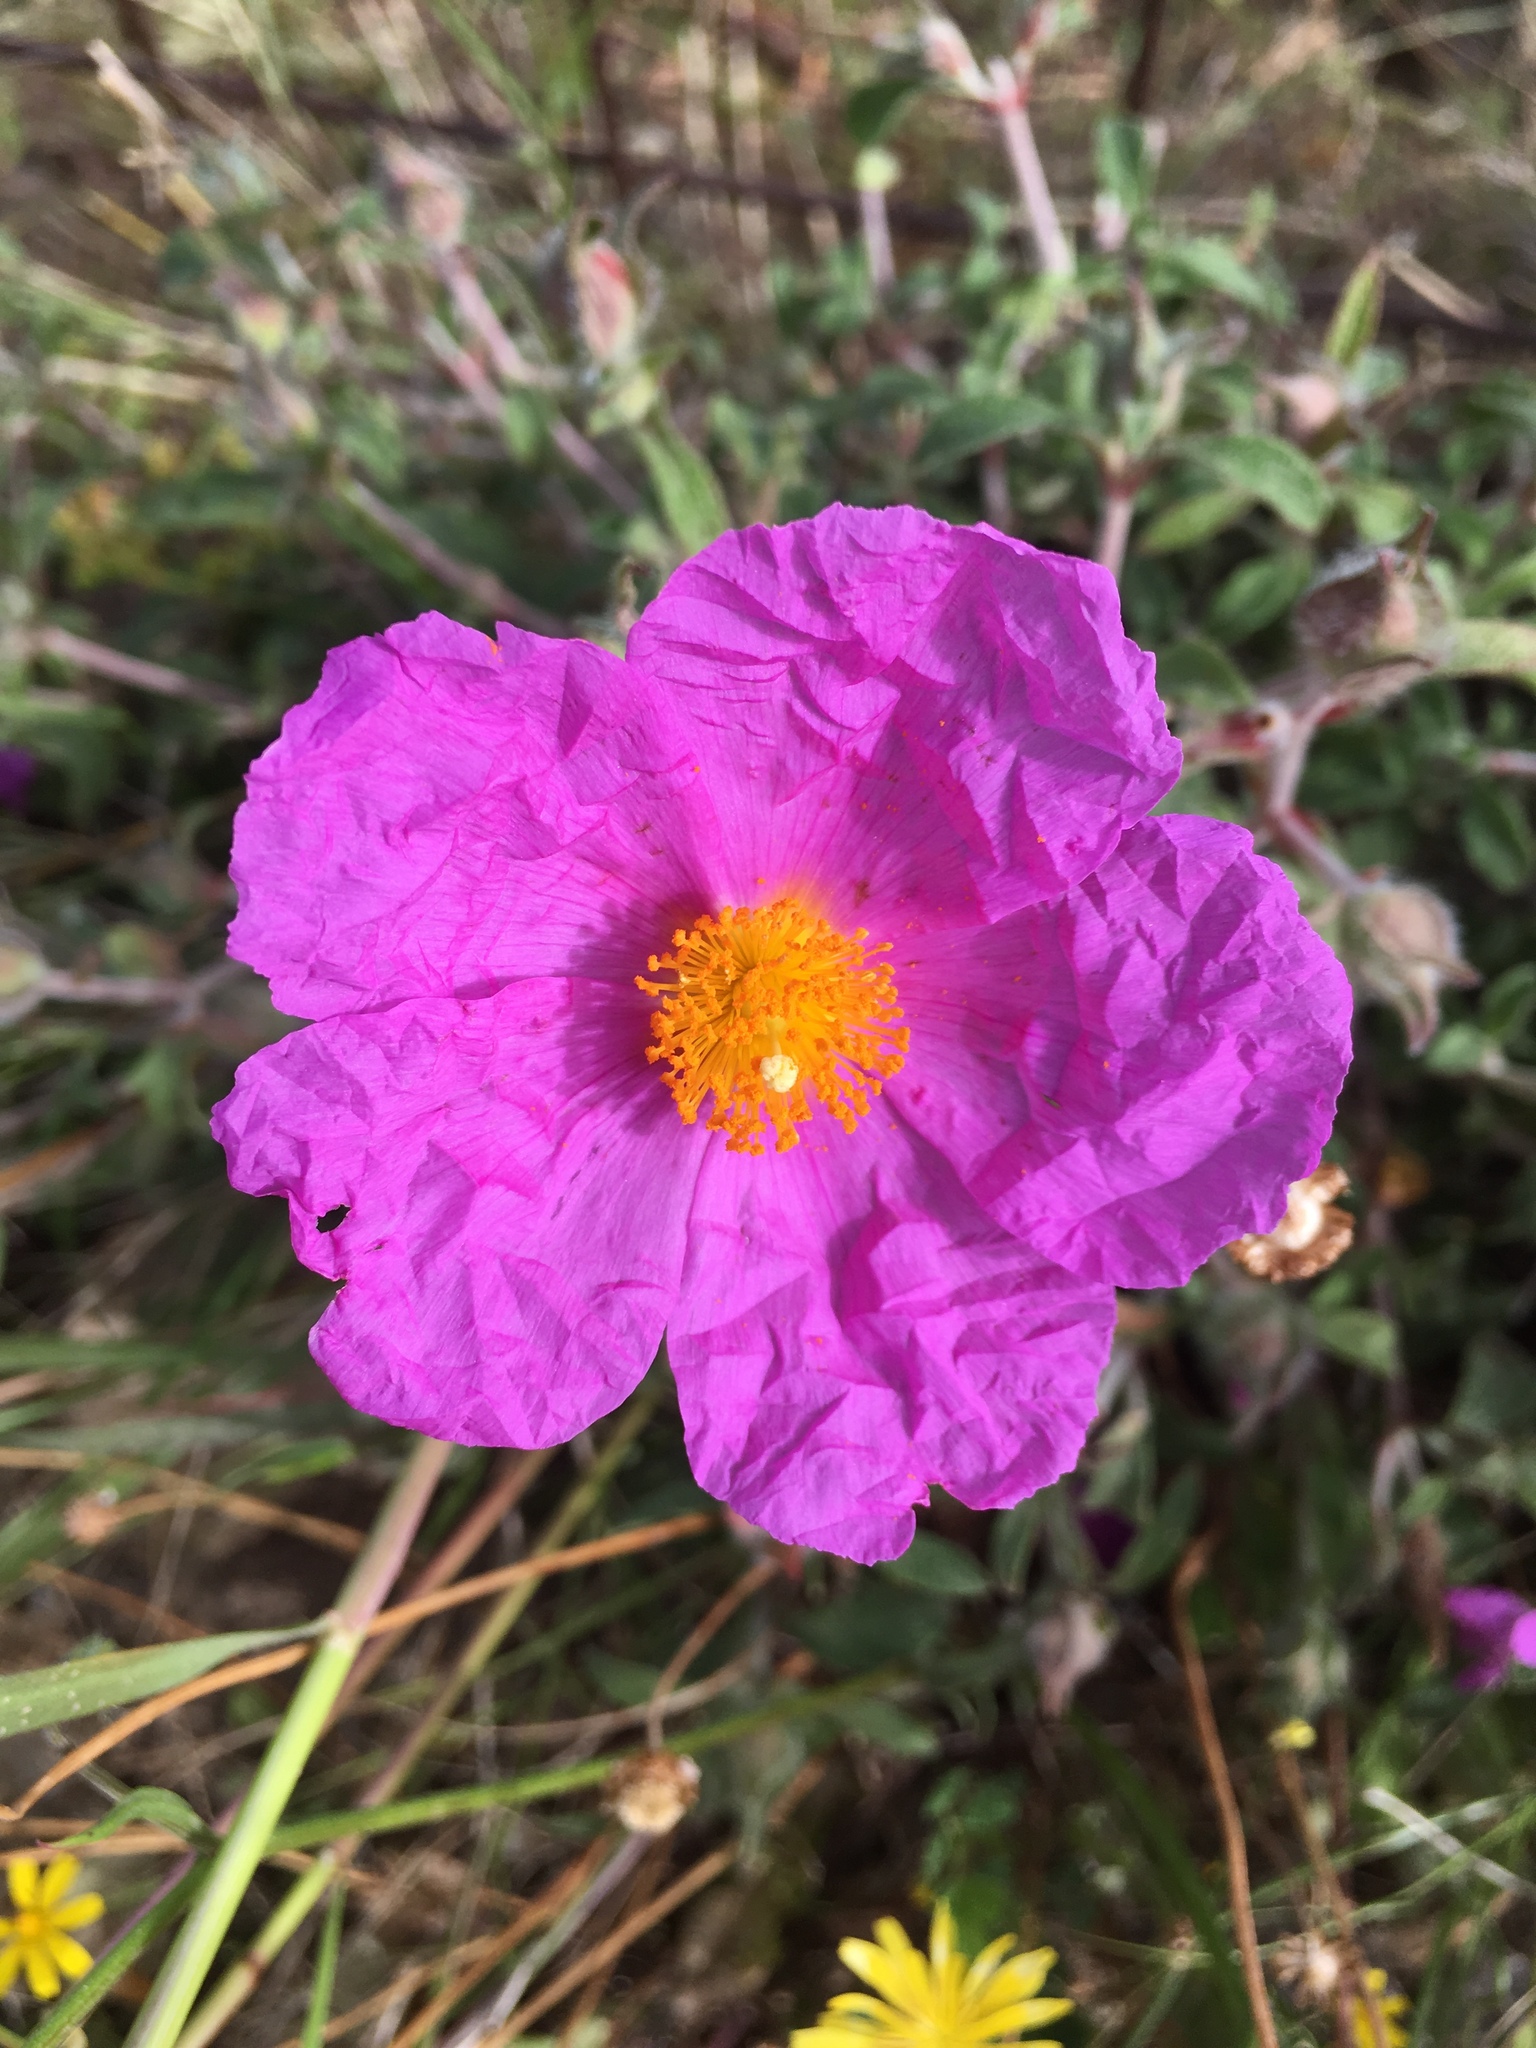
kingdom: Plantae
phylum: Tracheophyta
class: Magnoliopsida
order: Malvales
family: Cistaceae
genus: Cistus
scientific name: Cistus creticus
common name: Cretan rockrose
